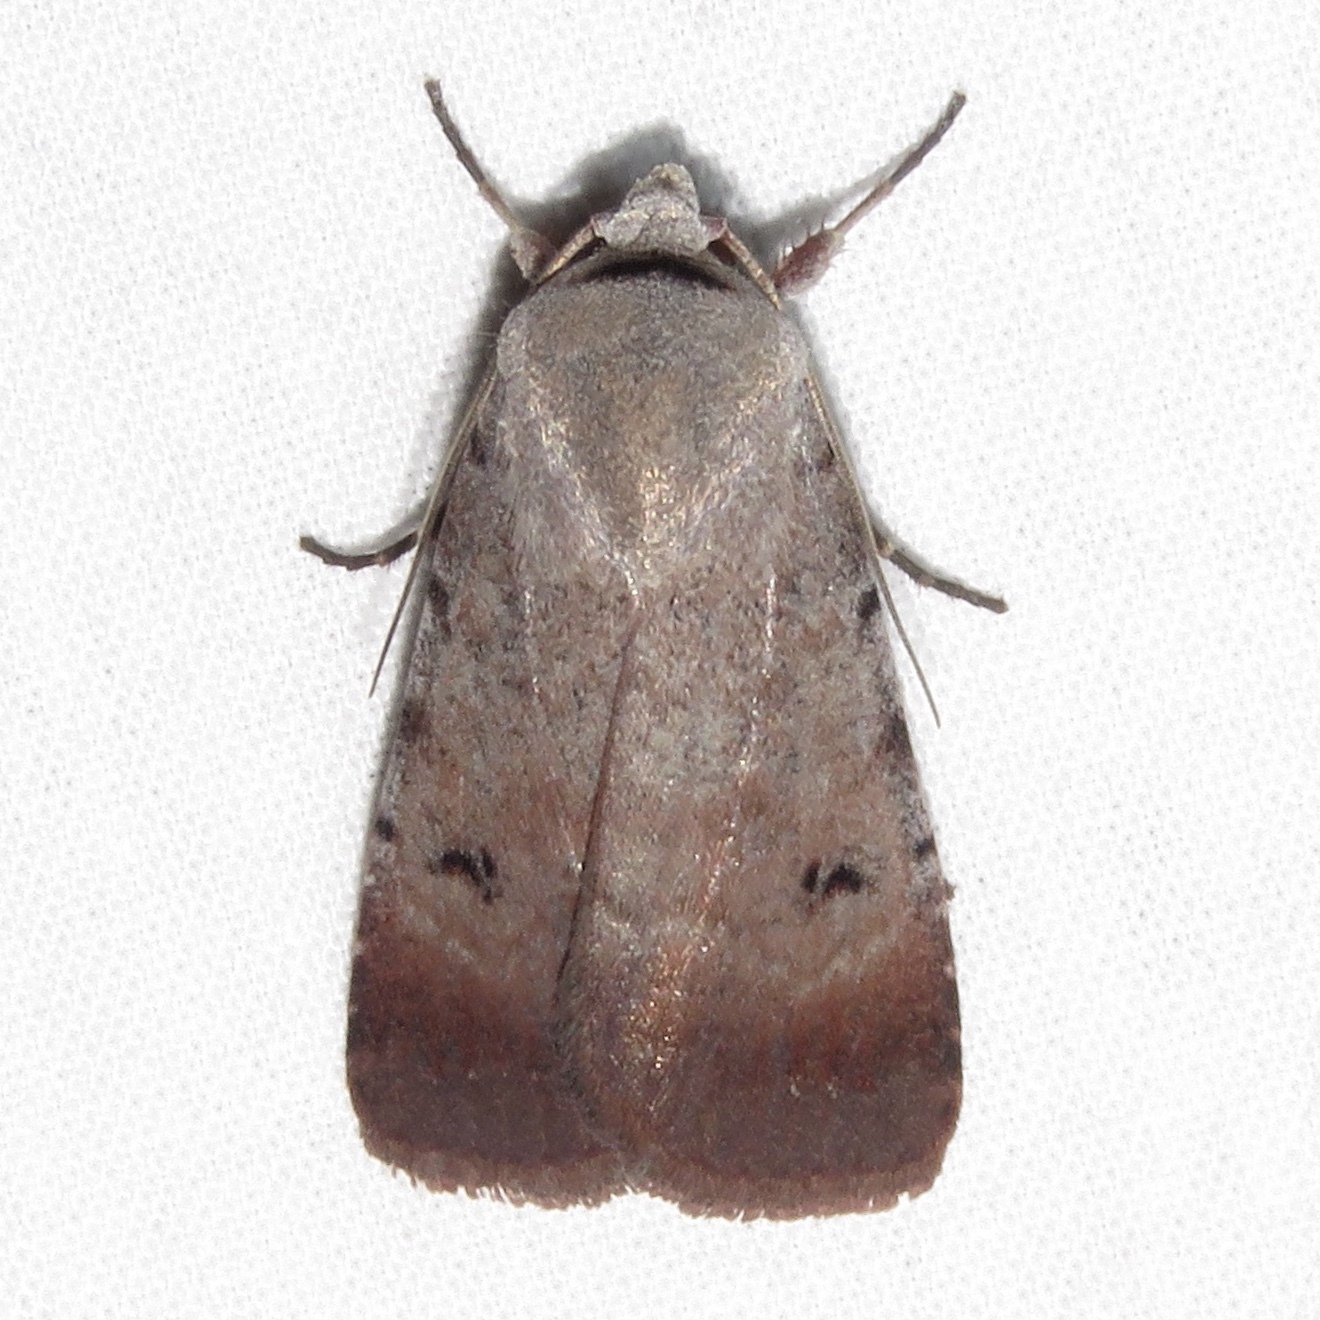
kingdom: Animalia
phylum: Arthropoda
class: Insecta
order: Lepidoptera
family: Noctuidae
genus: Anicla
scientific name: Anicla illapsa
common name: Snowy dart
